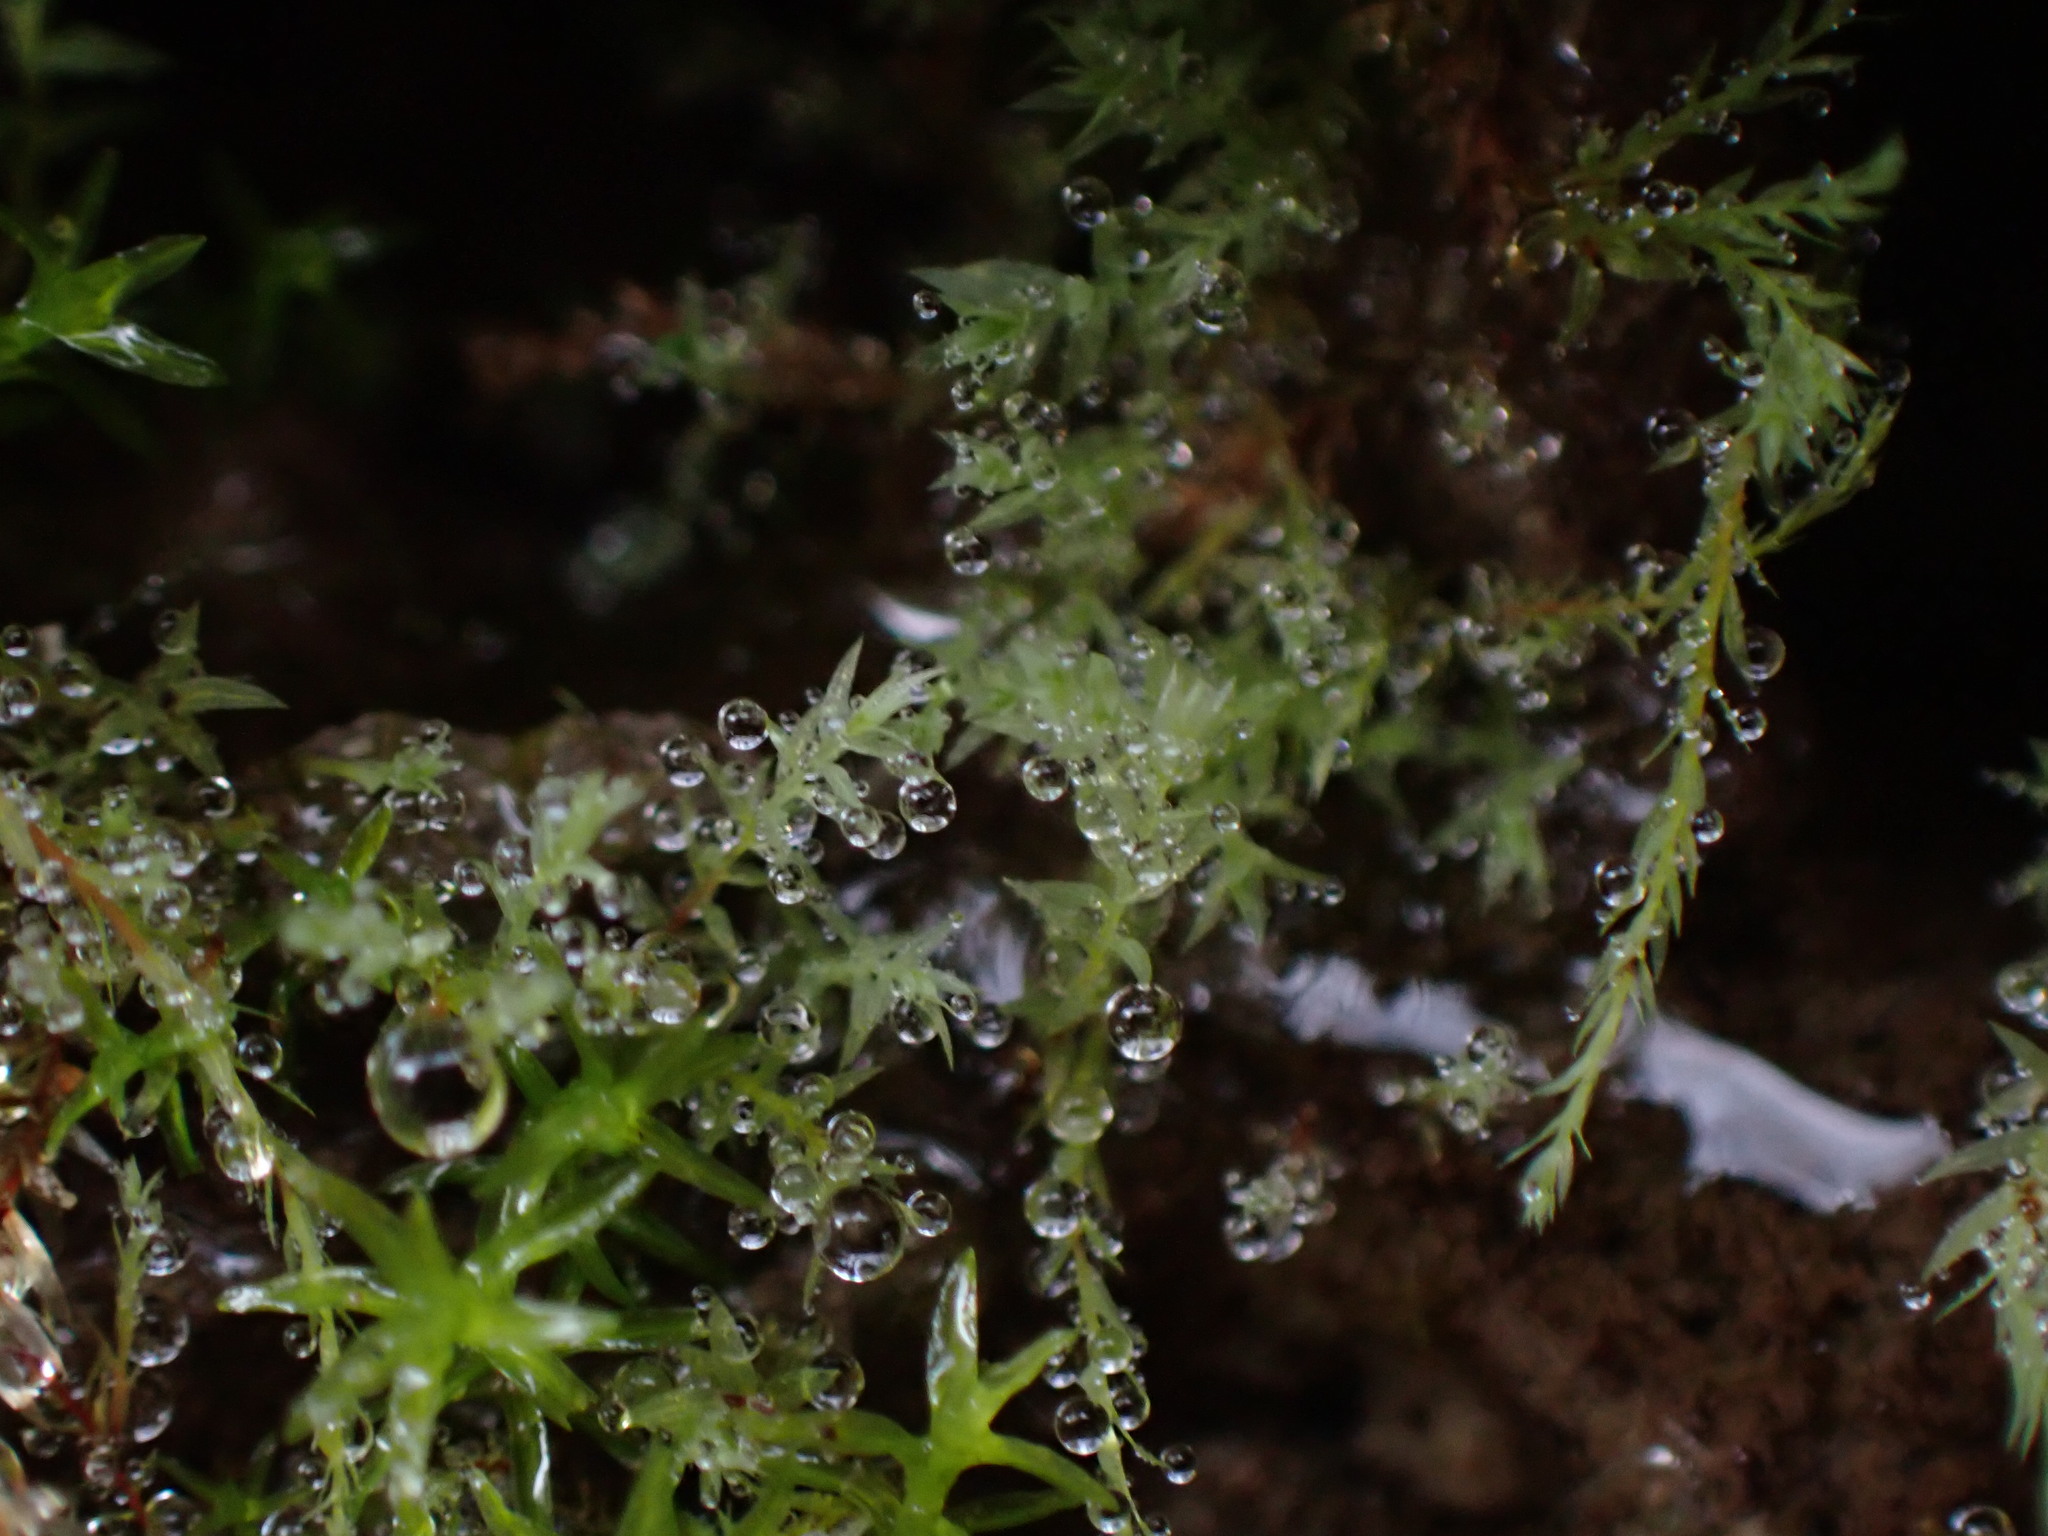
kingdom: Plantae
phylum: Bryophyta
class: Bryopsida
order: Bryales
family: Mniaceae
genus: Pohlia
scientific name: Pohlia wahlenbergii
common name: Wahlenberg's nodding moss
